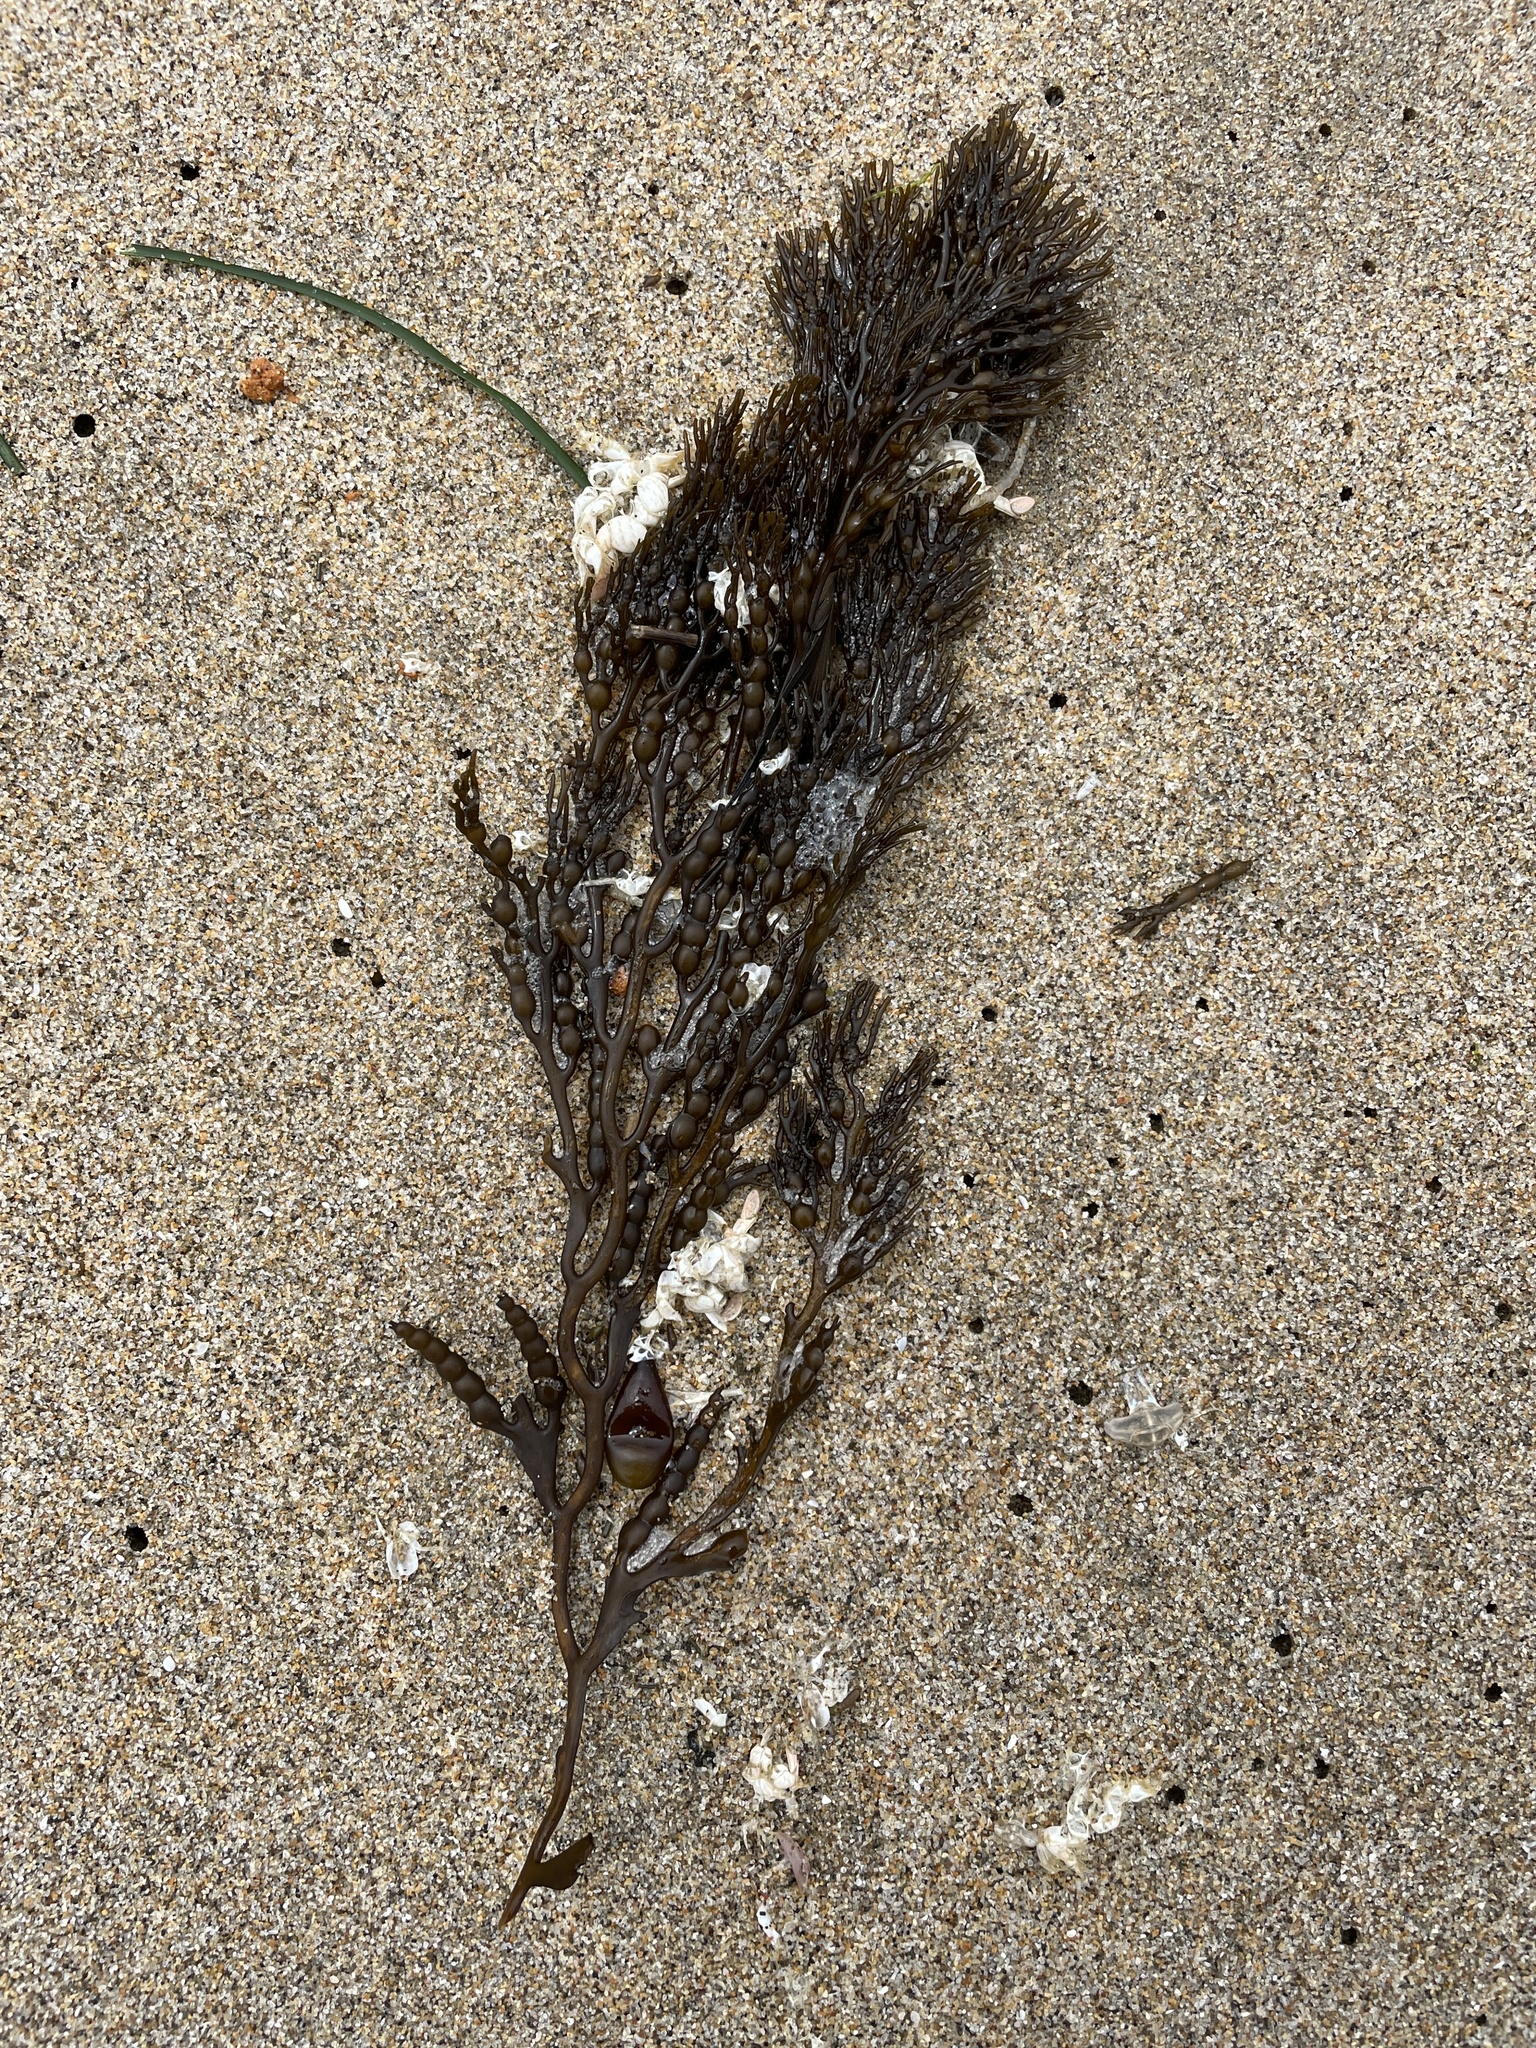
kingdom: Chromista
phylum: Ochrophyta
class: Phaeophyceae
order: Fucales
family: Sargassaceae
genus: Stephanocystis
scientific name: Stephanocystis
